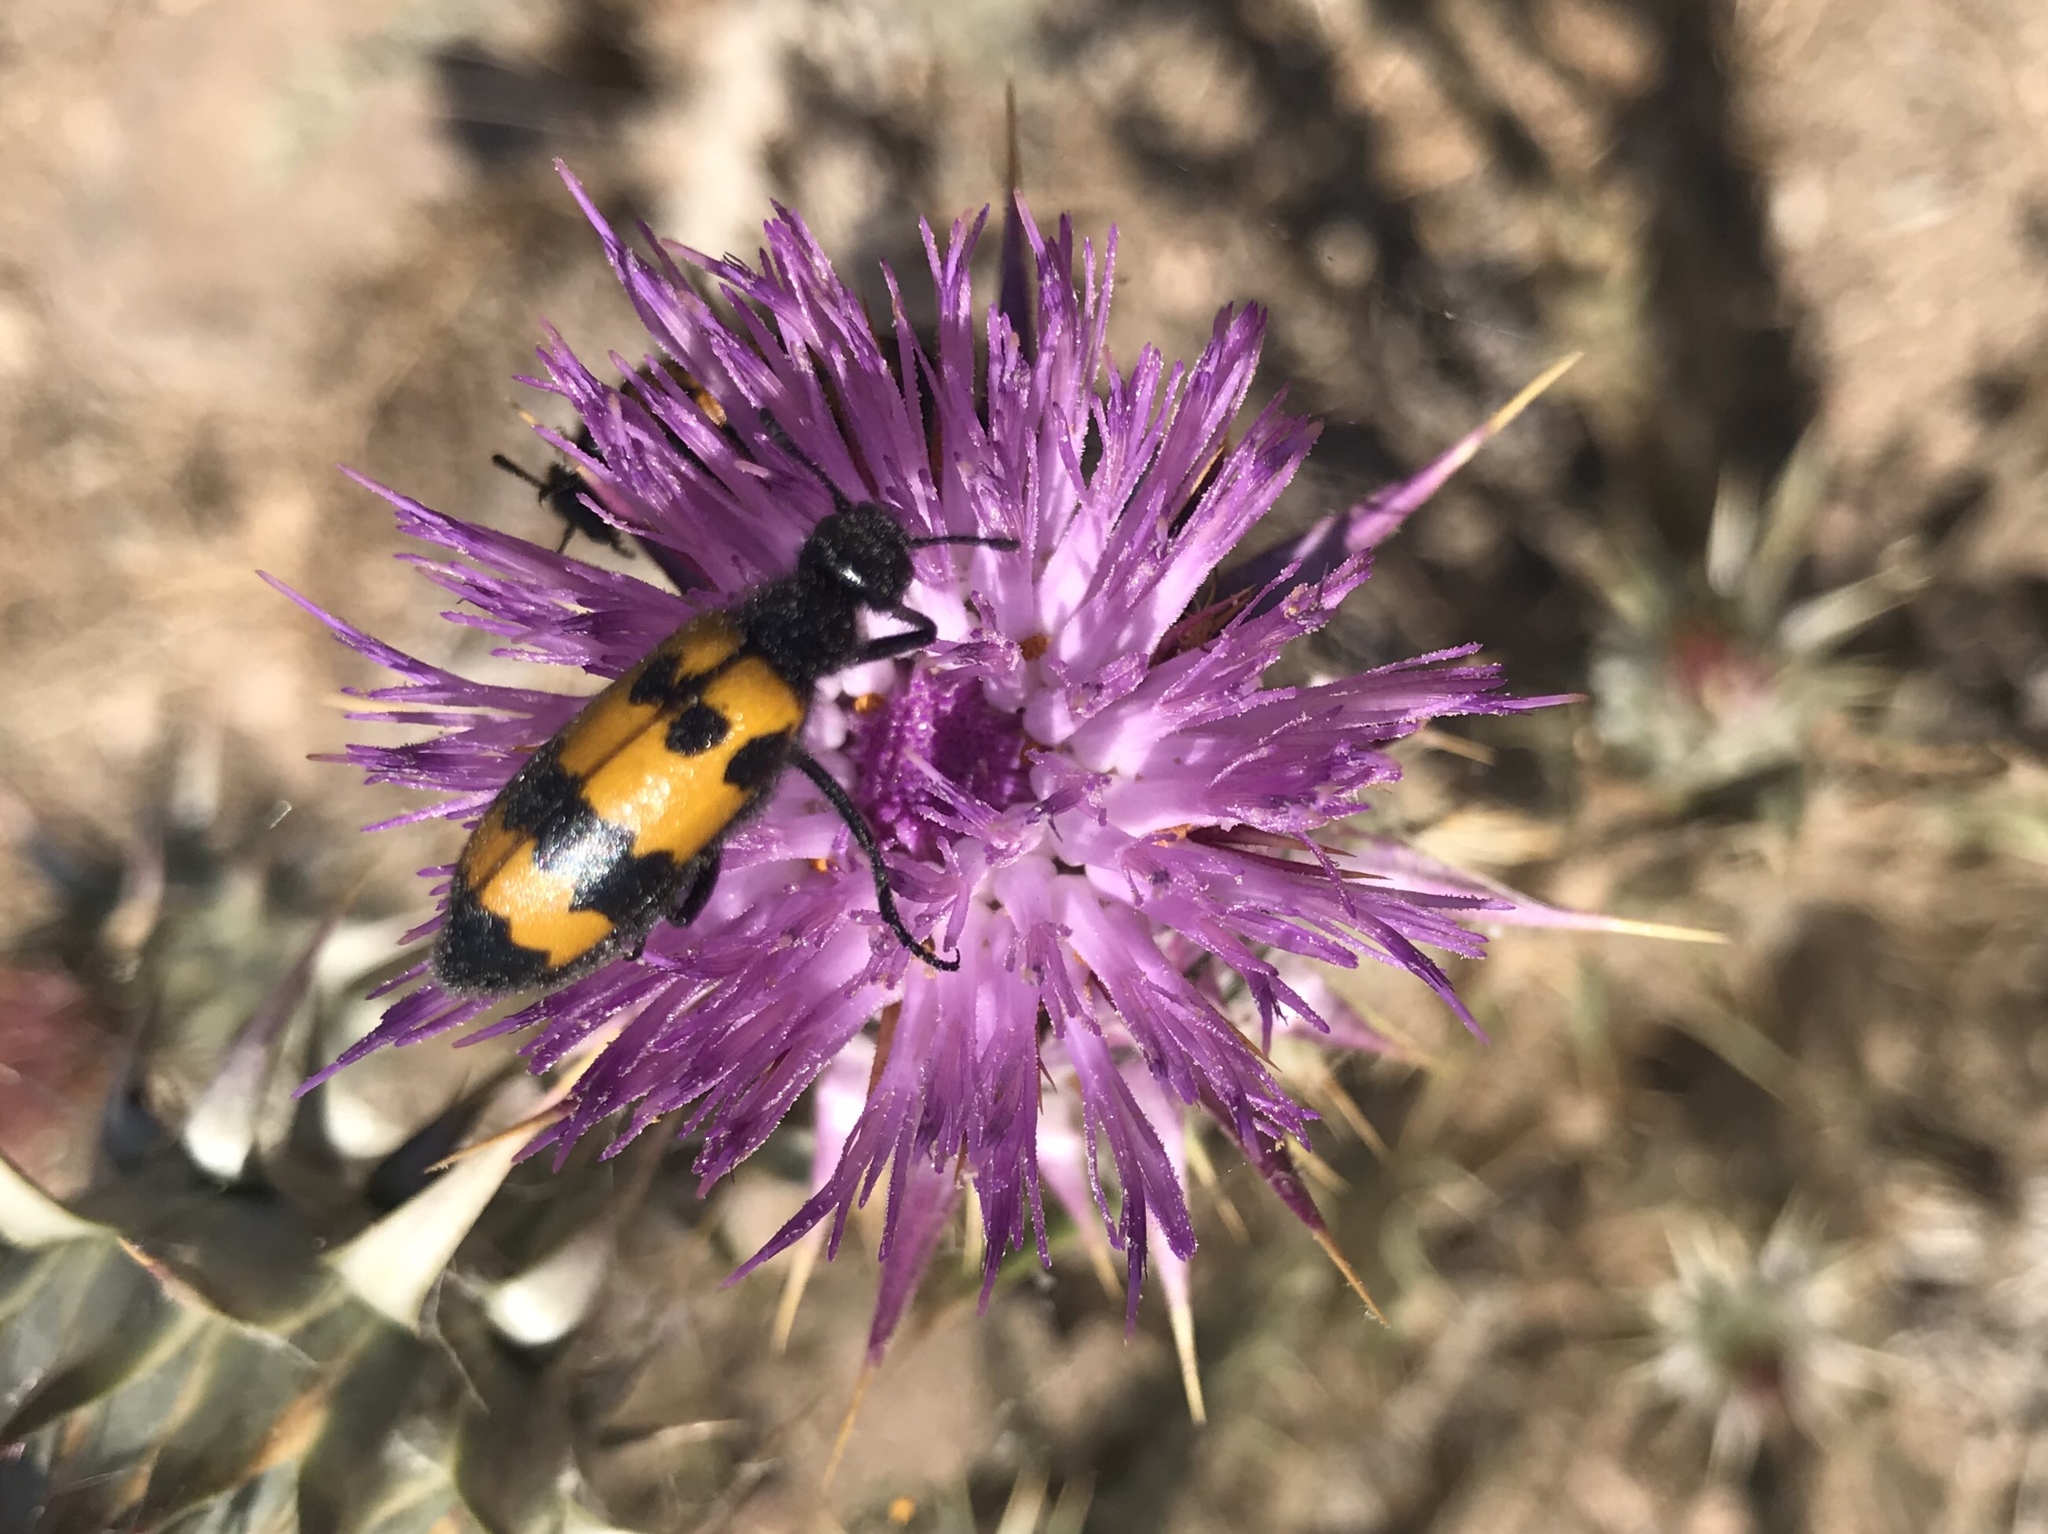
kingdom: Animalia
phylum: Arthropoda
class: Insecta
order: Coleoptera
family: Meloidae
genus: Mylabris
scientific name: Mylabris variabilis
